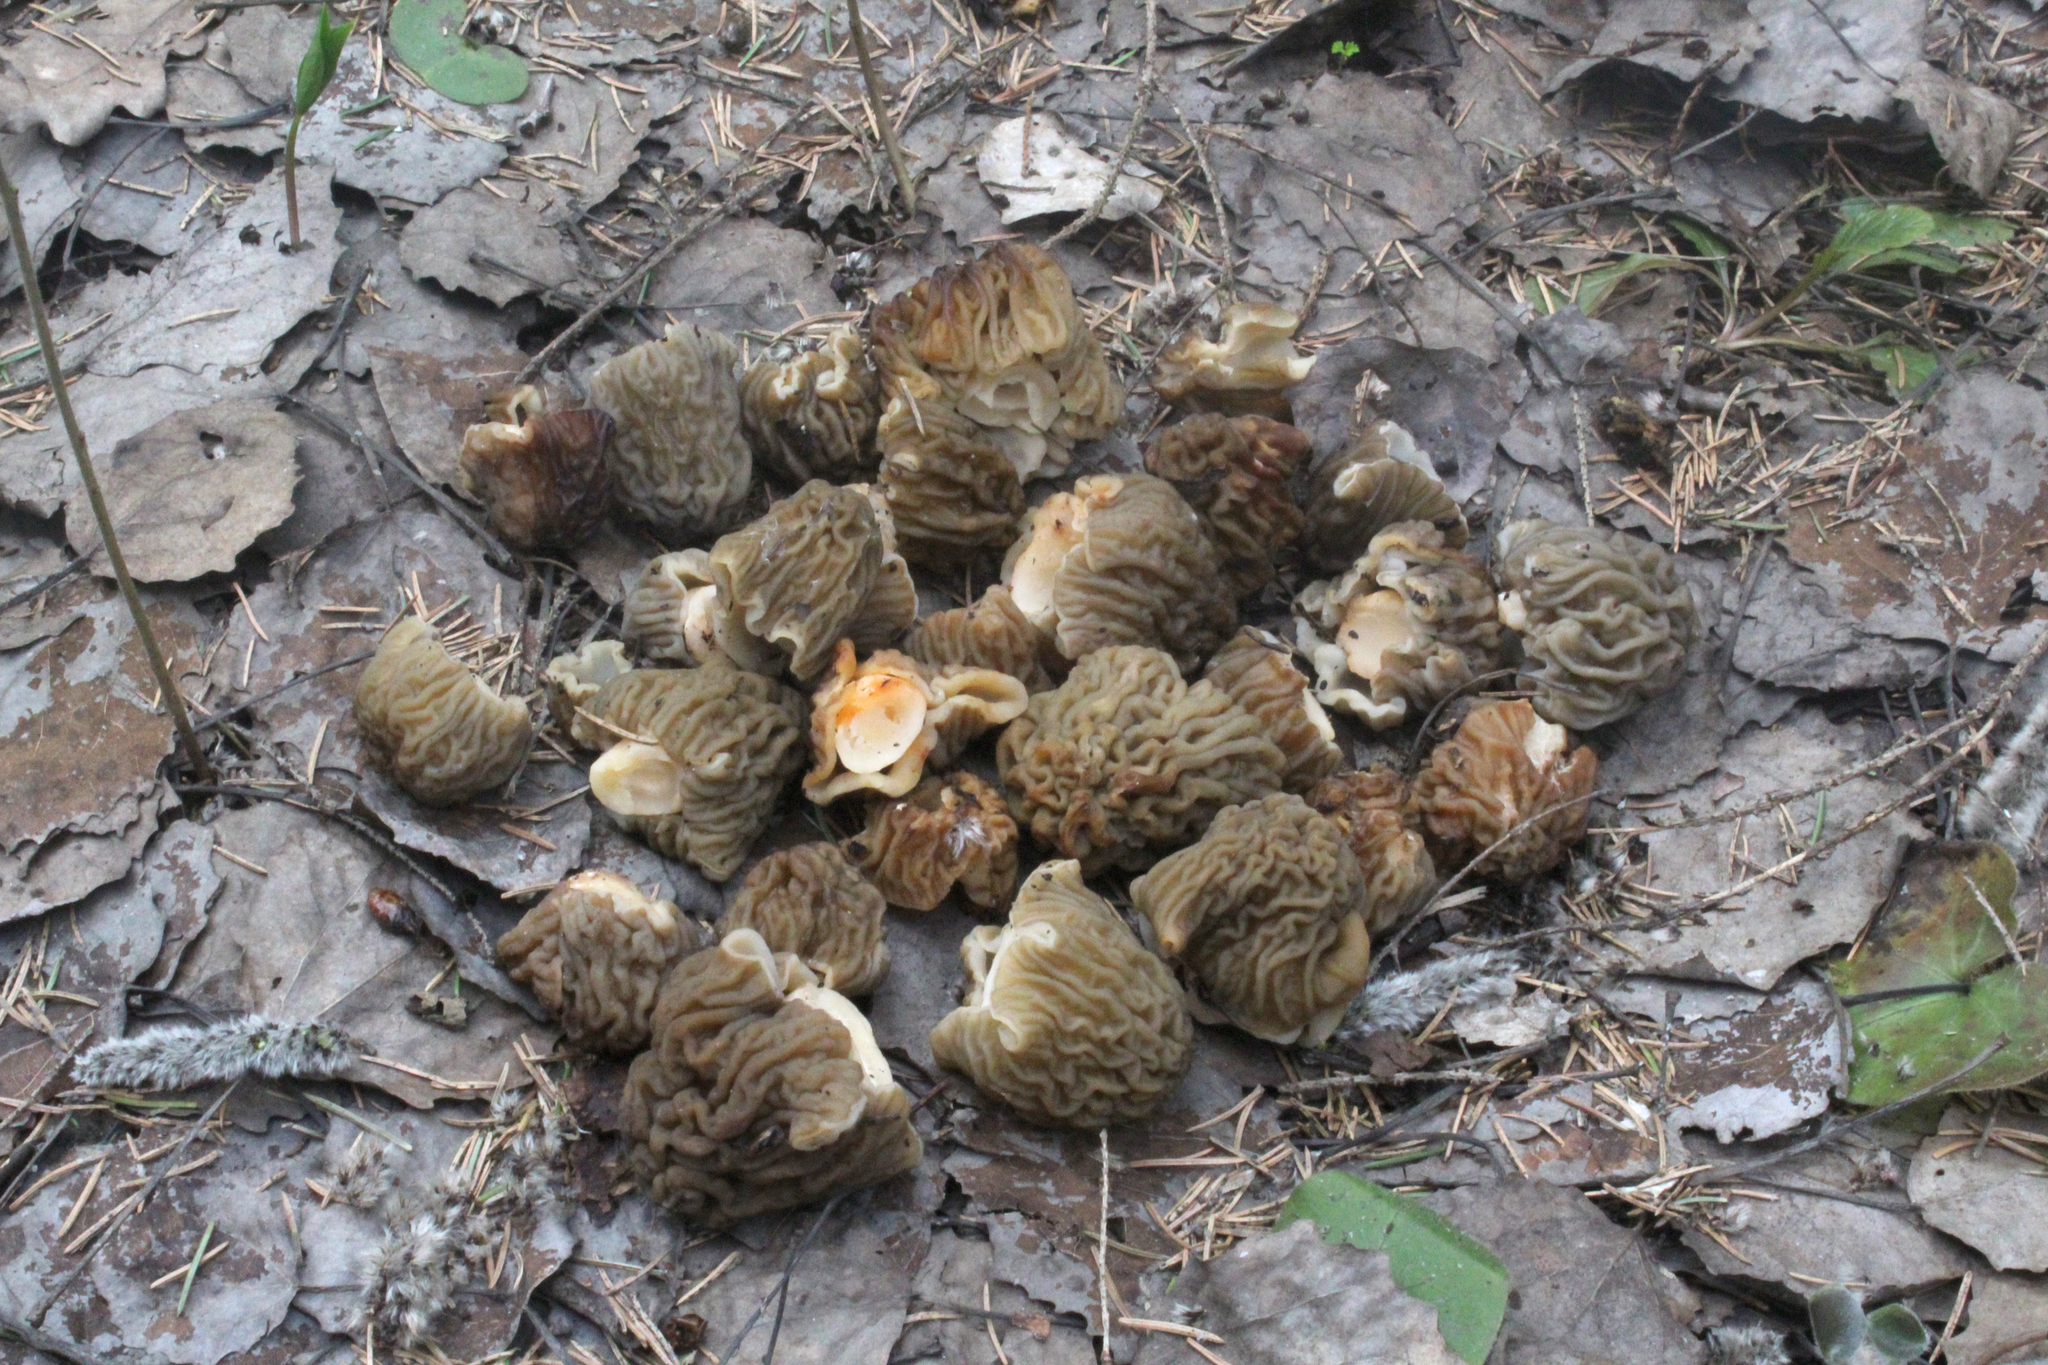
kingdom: Fungi
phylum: Ascomycota
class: Pezizomycetes
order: Pezizales
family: Morchellaceae
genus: Verpa
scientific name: Verpa bohemica
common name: Wrinkled thimble morel
